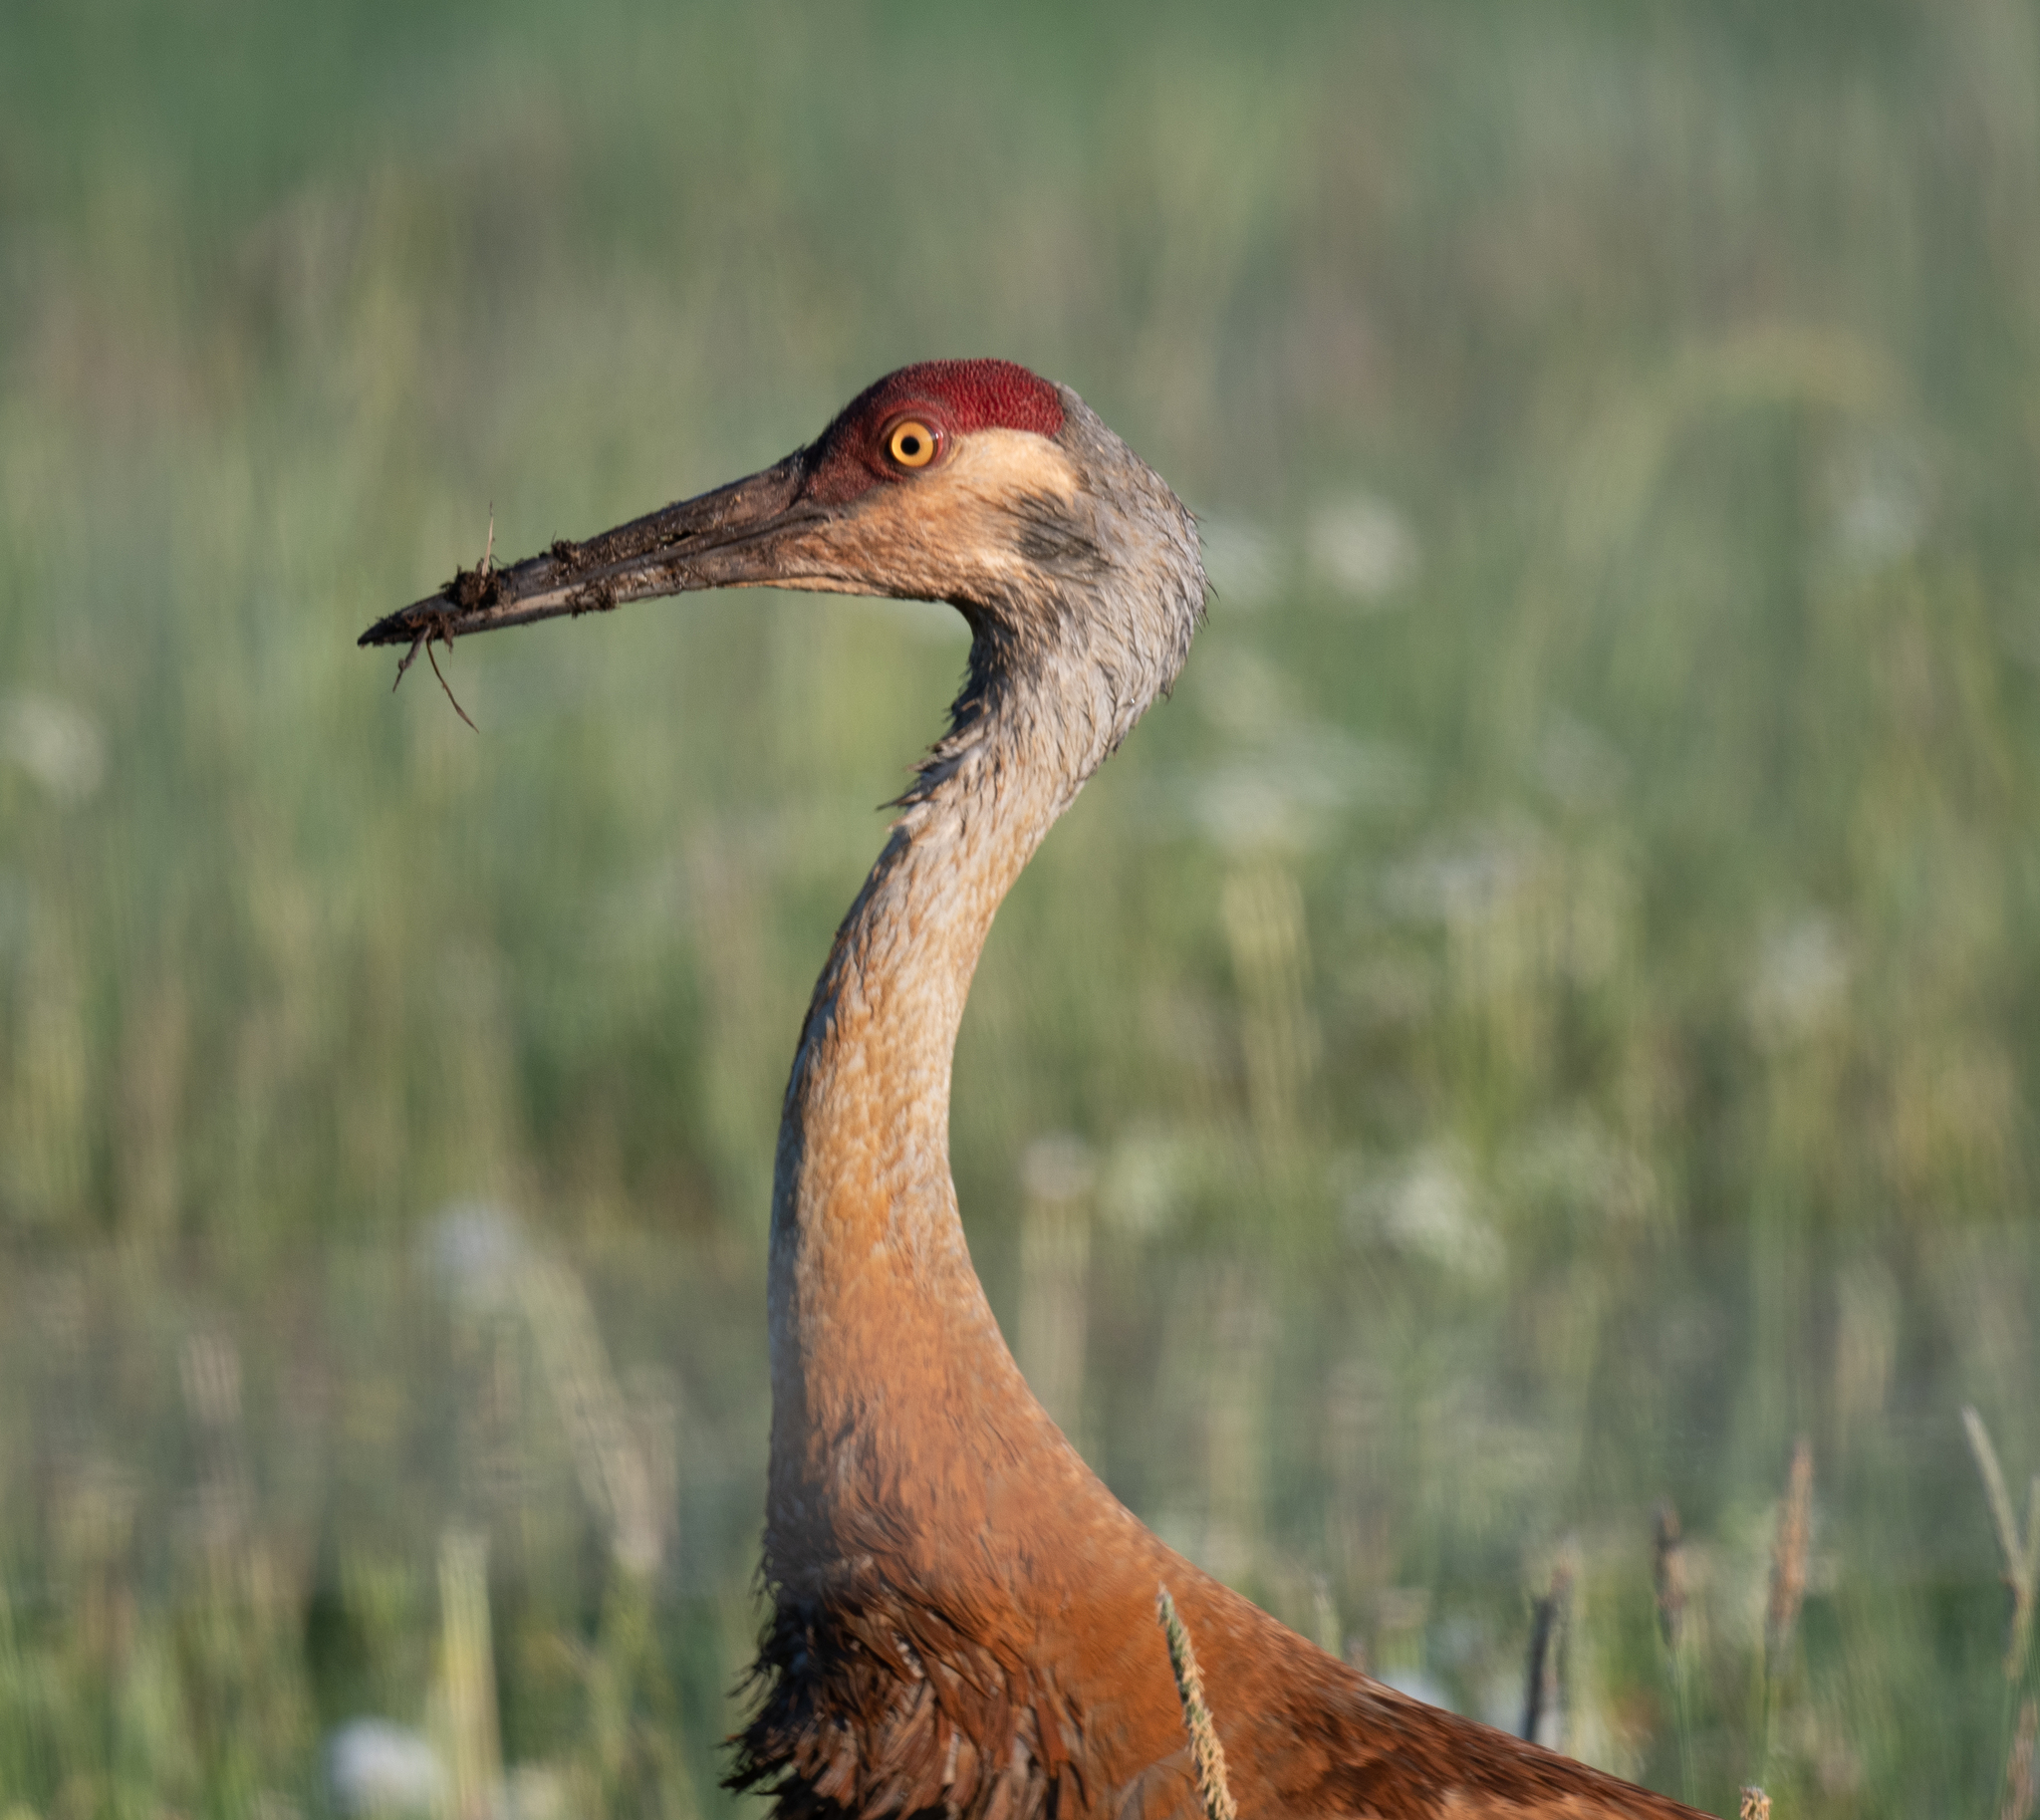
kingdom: Animalia
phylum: Chordata
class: Aves
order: Gruiformes
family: Gruidae
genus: Grus
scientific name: Grus canadensis
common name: Sandhill crane
